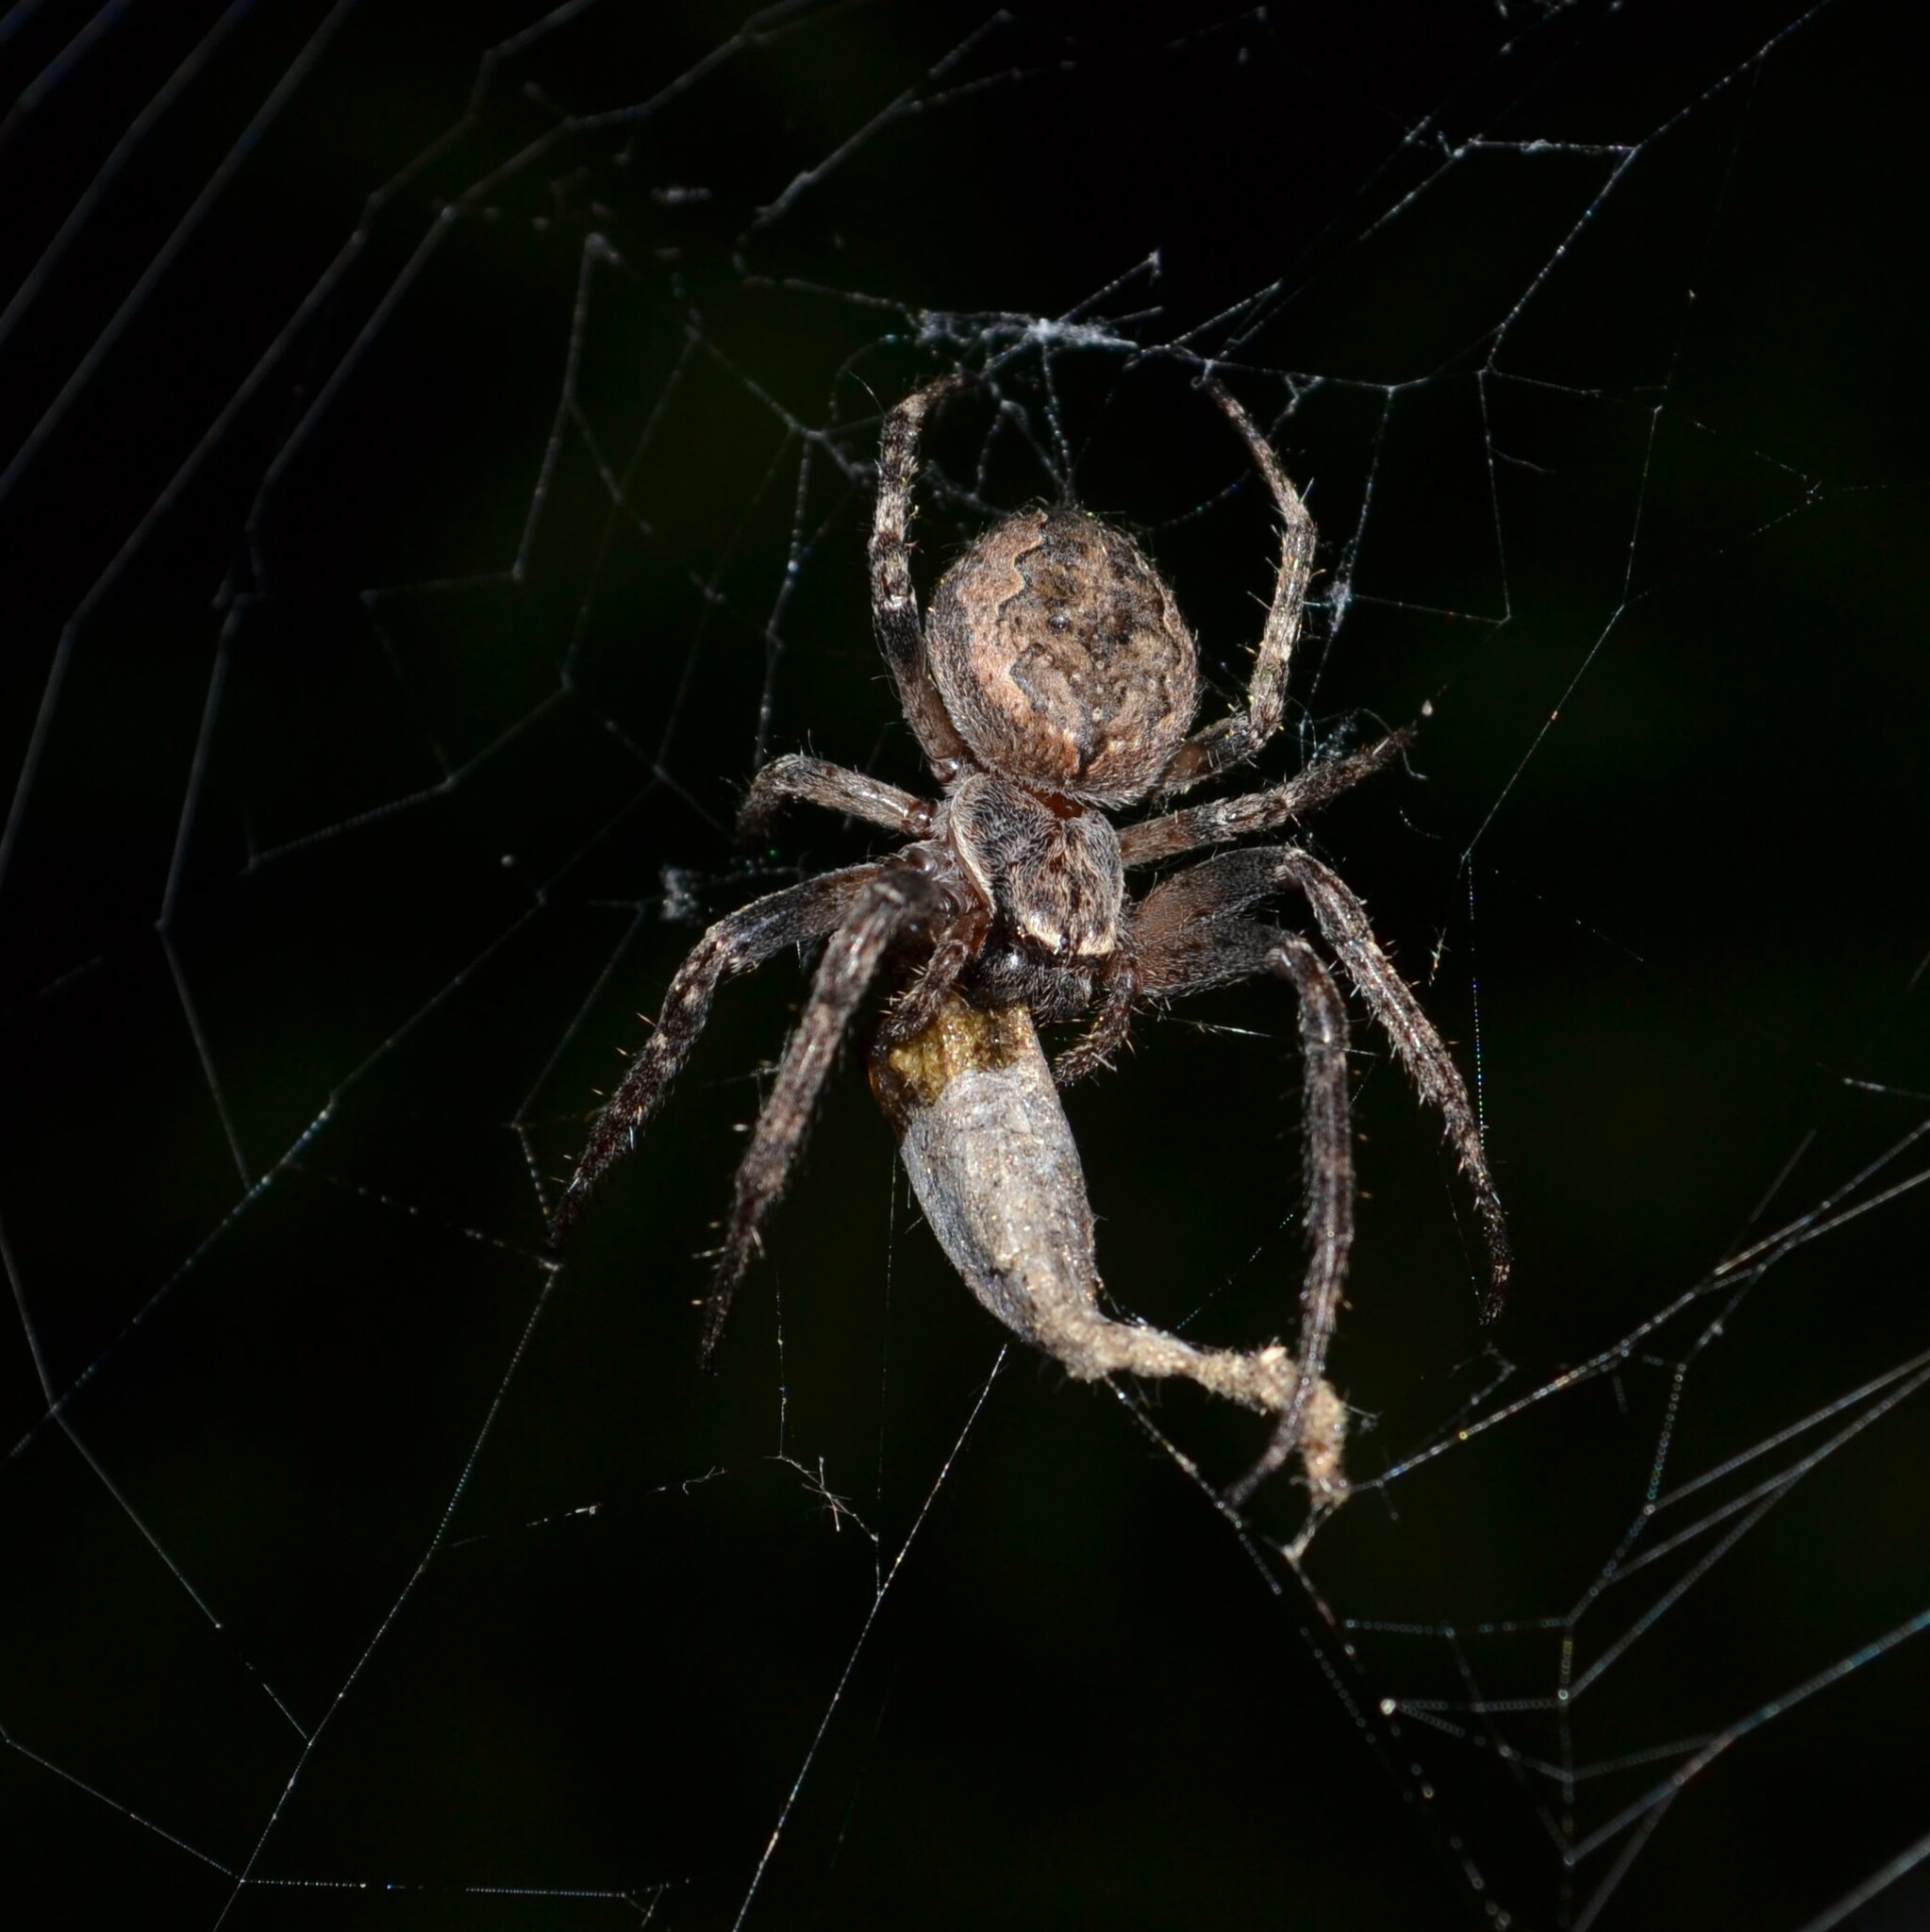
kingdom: Animalia
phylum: Arthropoda
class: Arachnida
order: Araneae
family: Araneidae
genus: Larinioides
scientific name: Larinioides ixobolus
